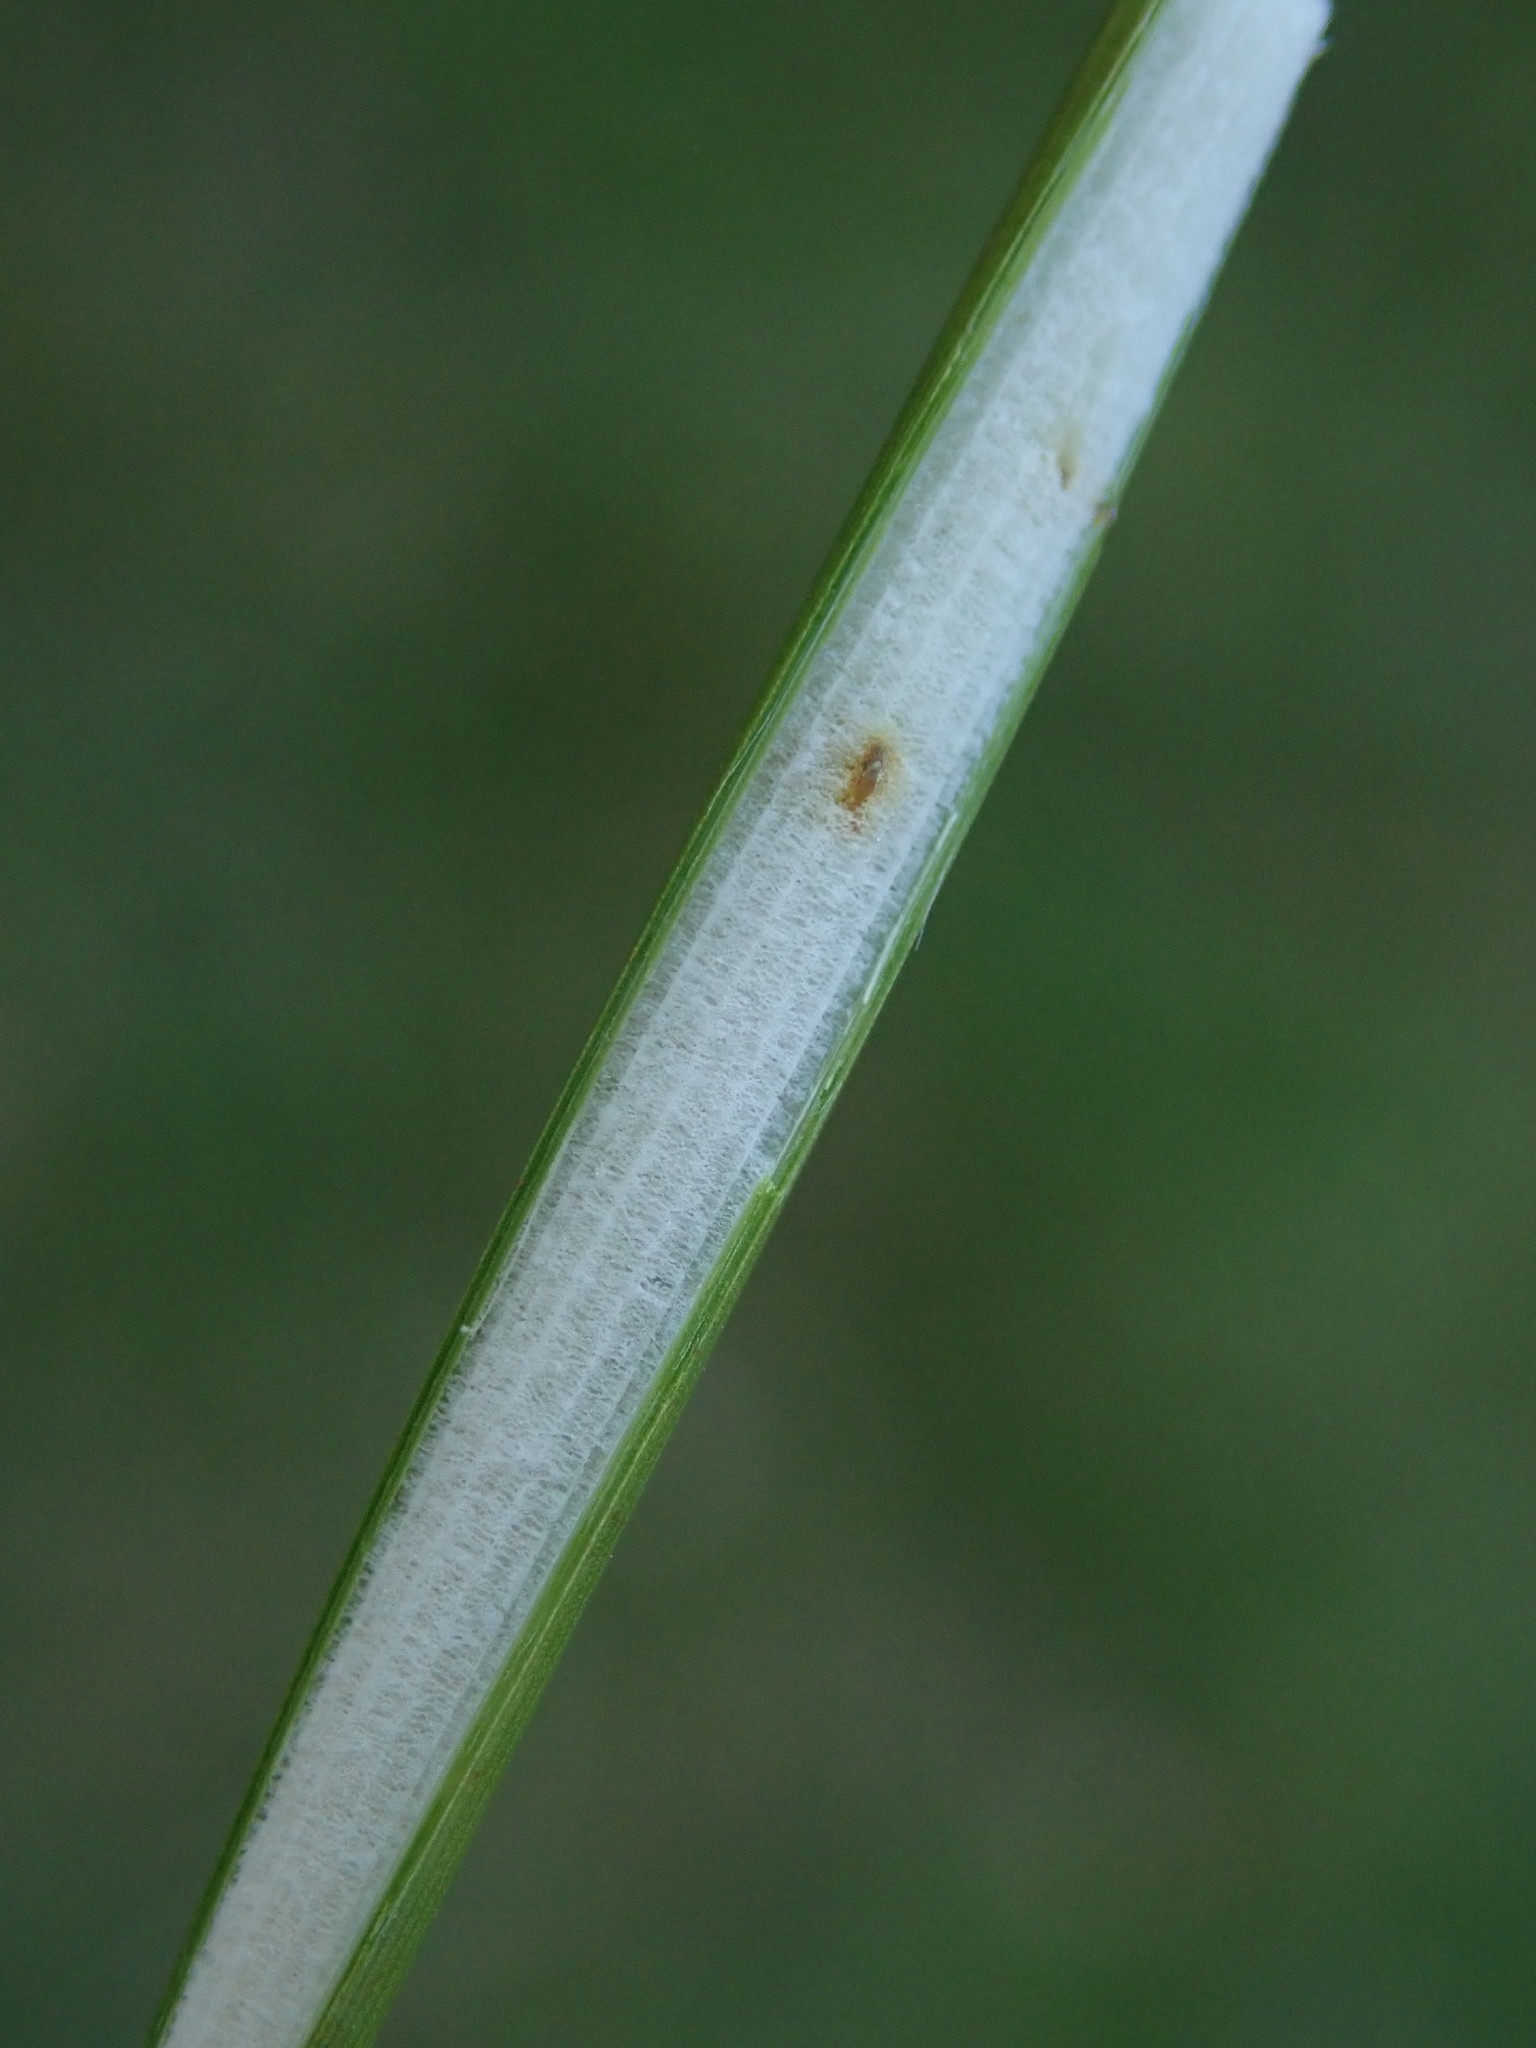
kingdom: Plantae
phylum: Tracheophyta
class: Liliopsida
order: Poales
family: Juncaceae
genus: Juncus
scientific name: Juncus effusus
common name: Soft rush
